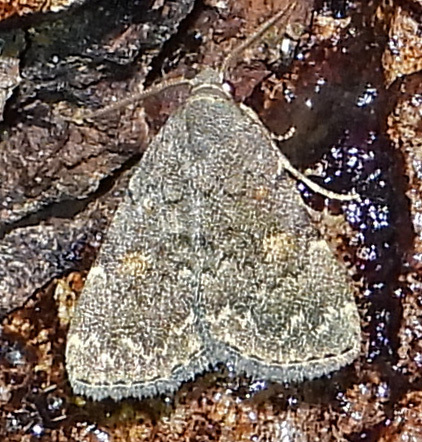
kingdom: Animalia
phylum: Arthropoda
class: Insecta
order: Lepidoptera
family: Erebidae
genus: Idia
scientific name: Idia aemula
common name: Common idia moth
